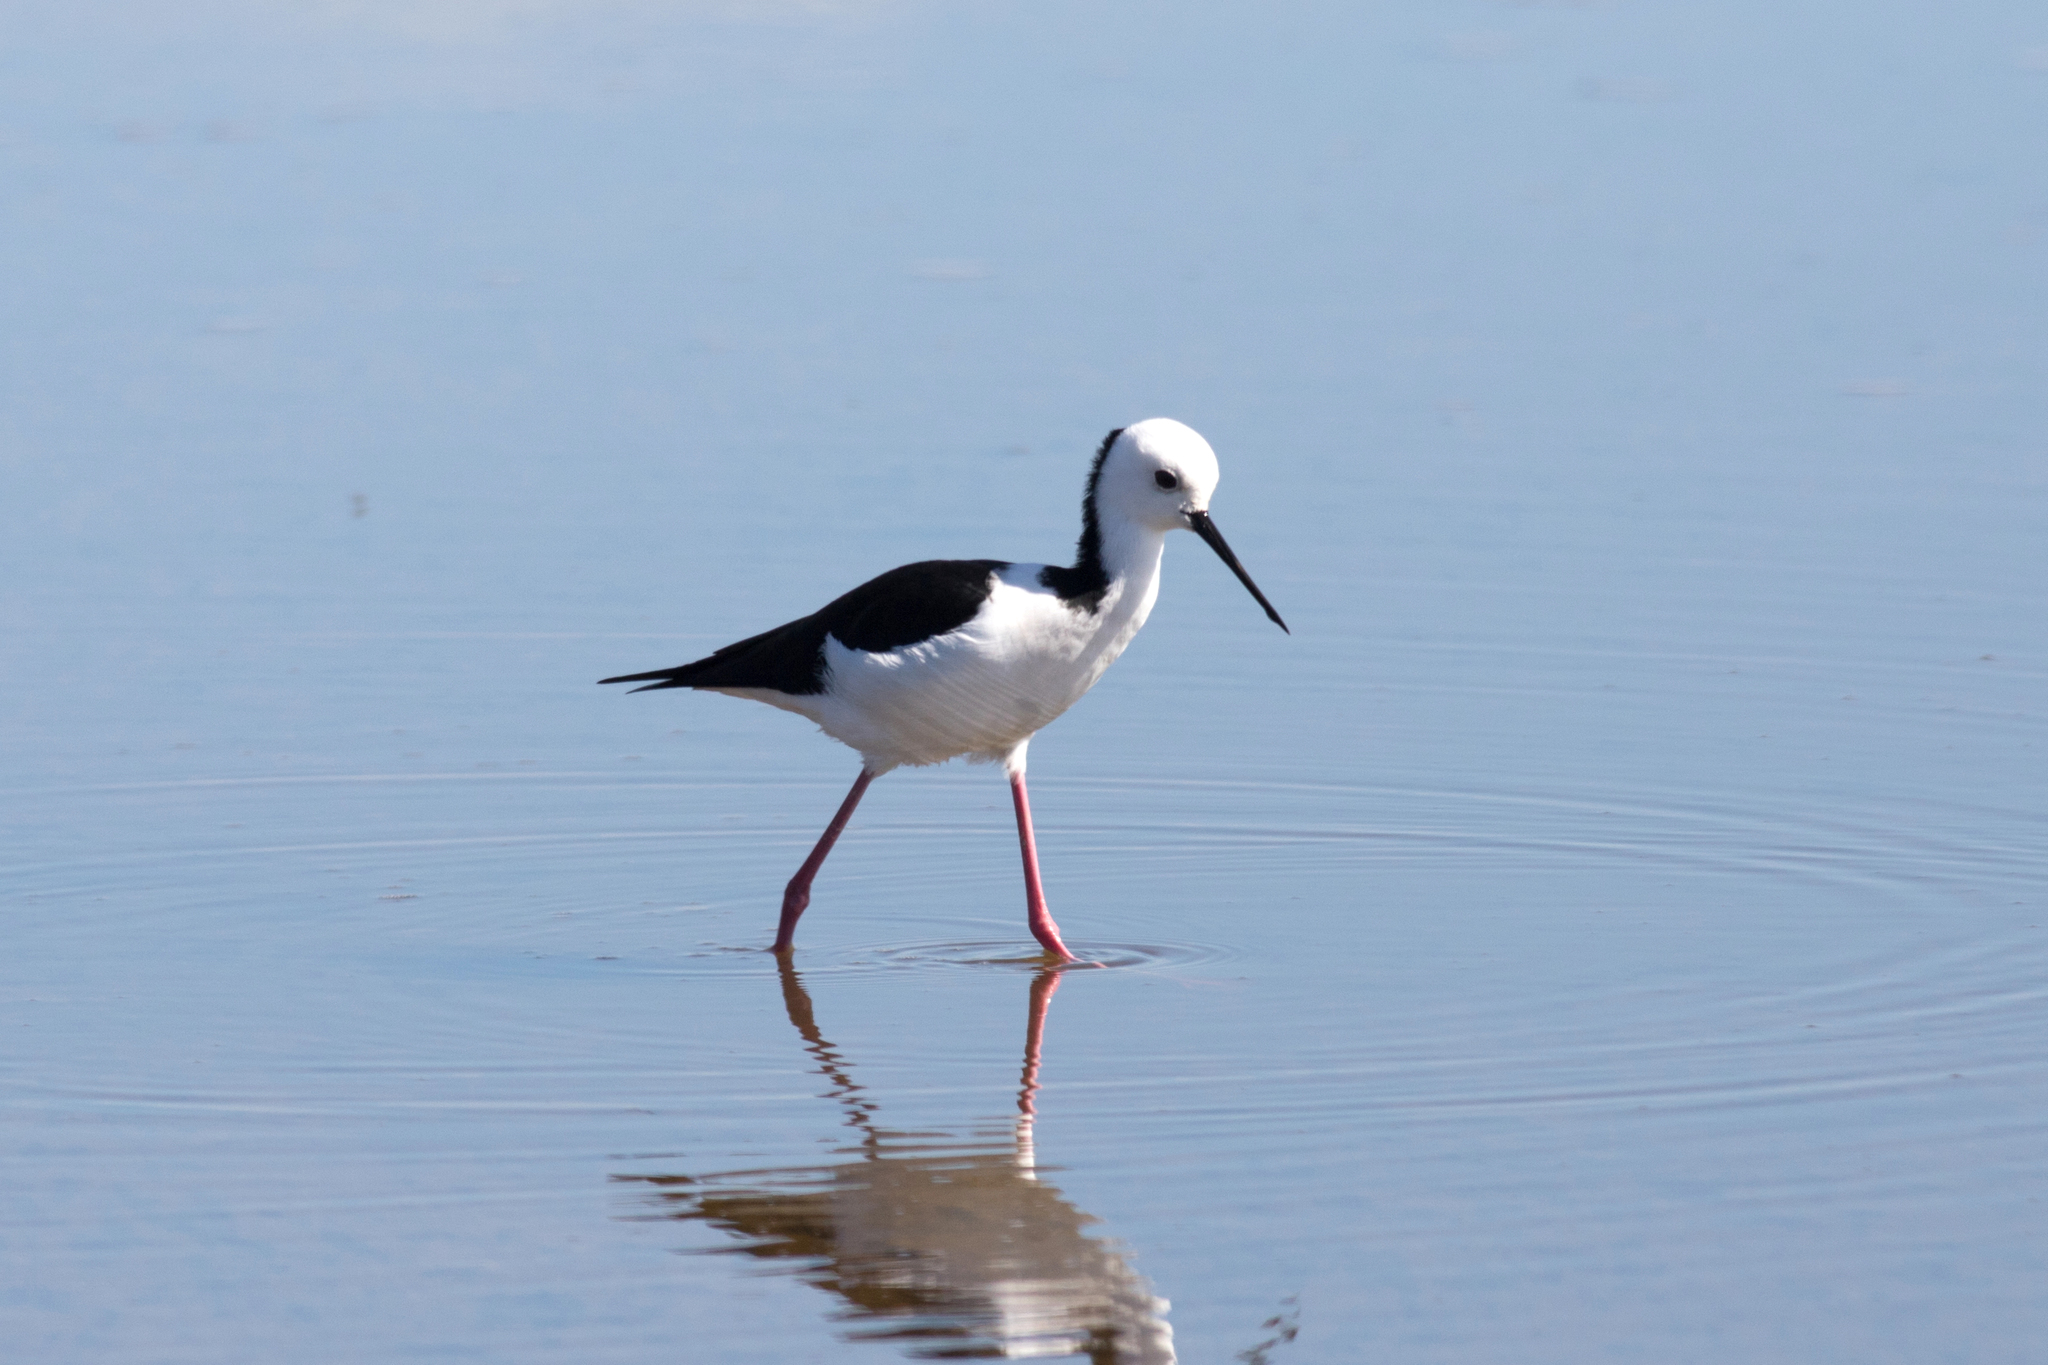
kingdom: Animalia
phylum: Chordata
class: Aves
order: Charadriiformes
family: Recurvirostridae
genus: Himantopus
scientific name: Himantopus leucocephalus
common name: White-headed stilt
